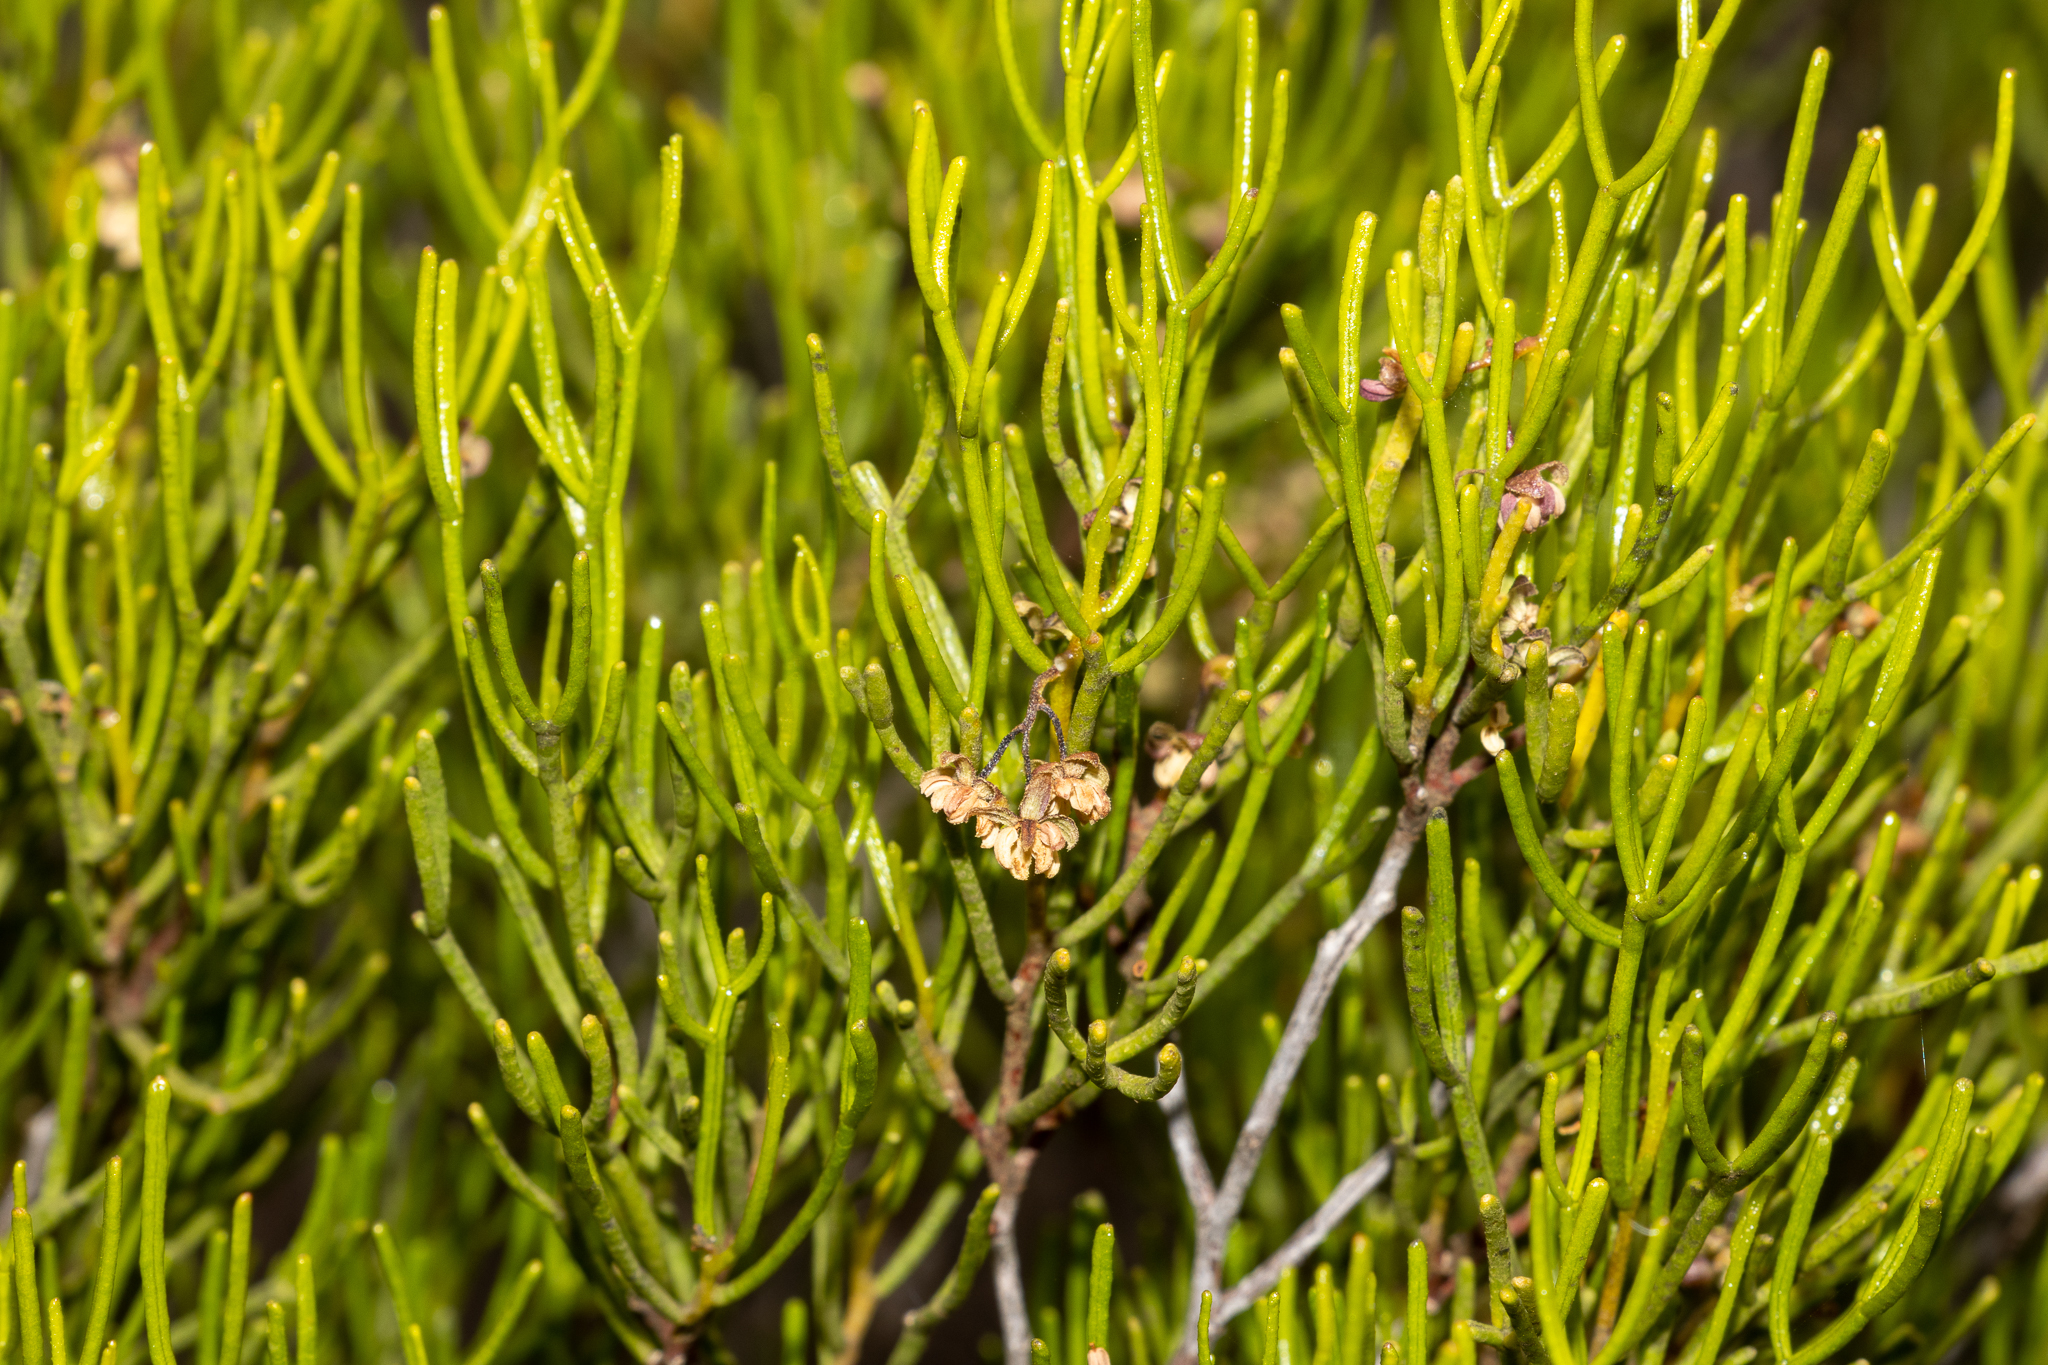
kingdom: Plantae
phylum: Tracheophyta
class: Magnoliopsida
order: Sapindales
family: Sapindaceae
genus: Dodonaea
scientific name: Dodonaea stenozyga
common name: Desert hopbush
